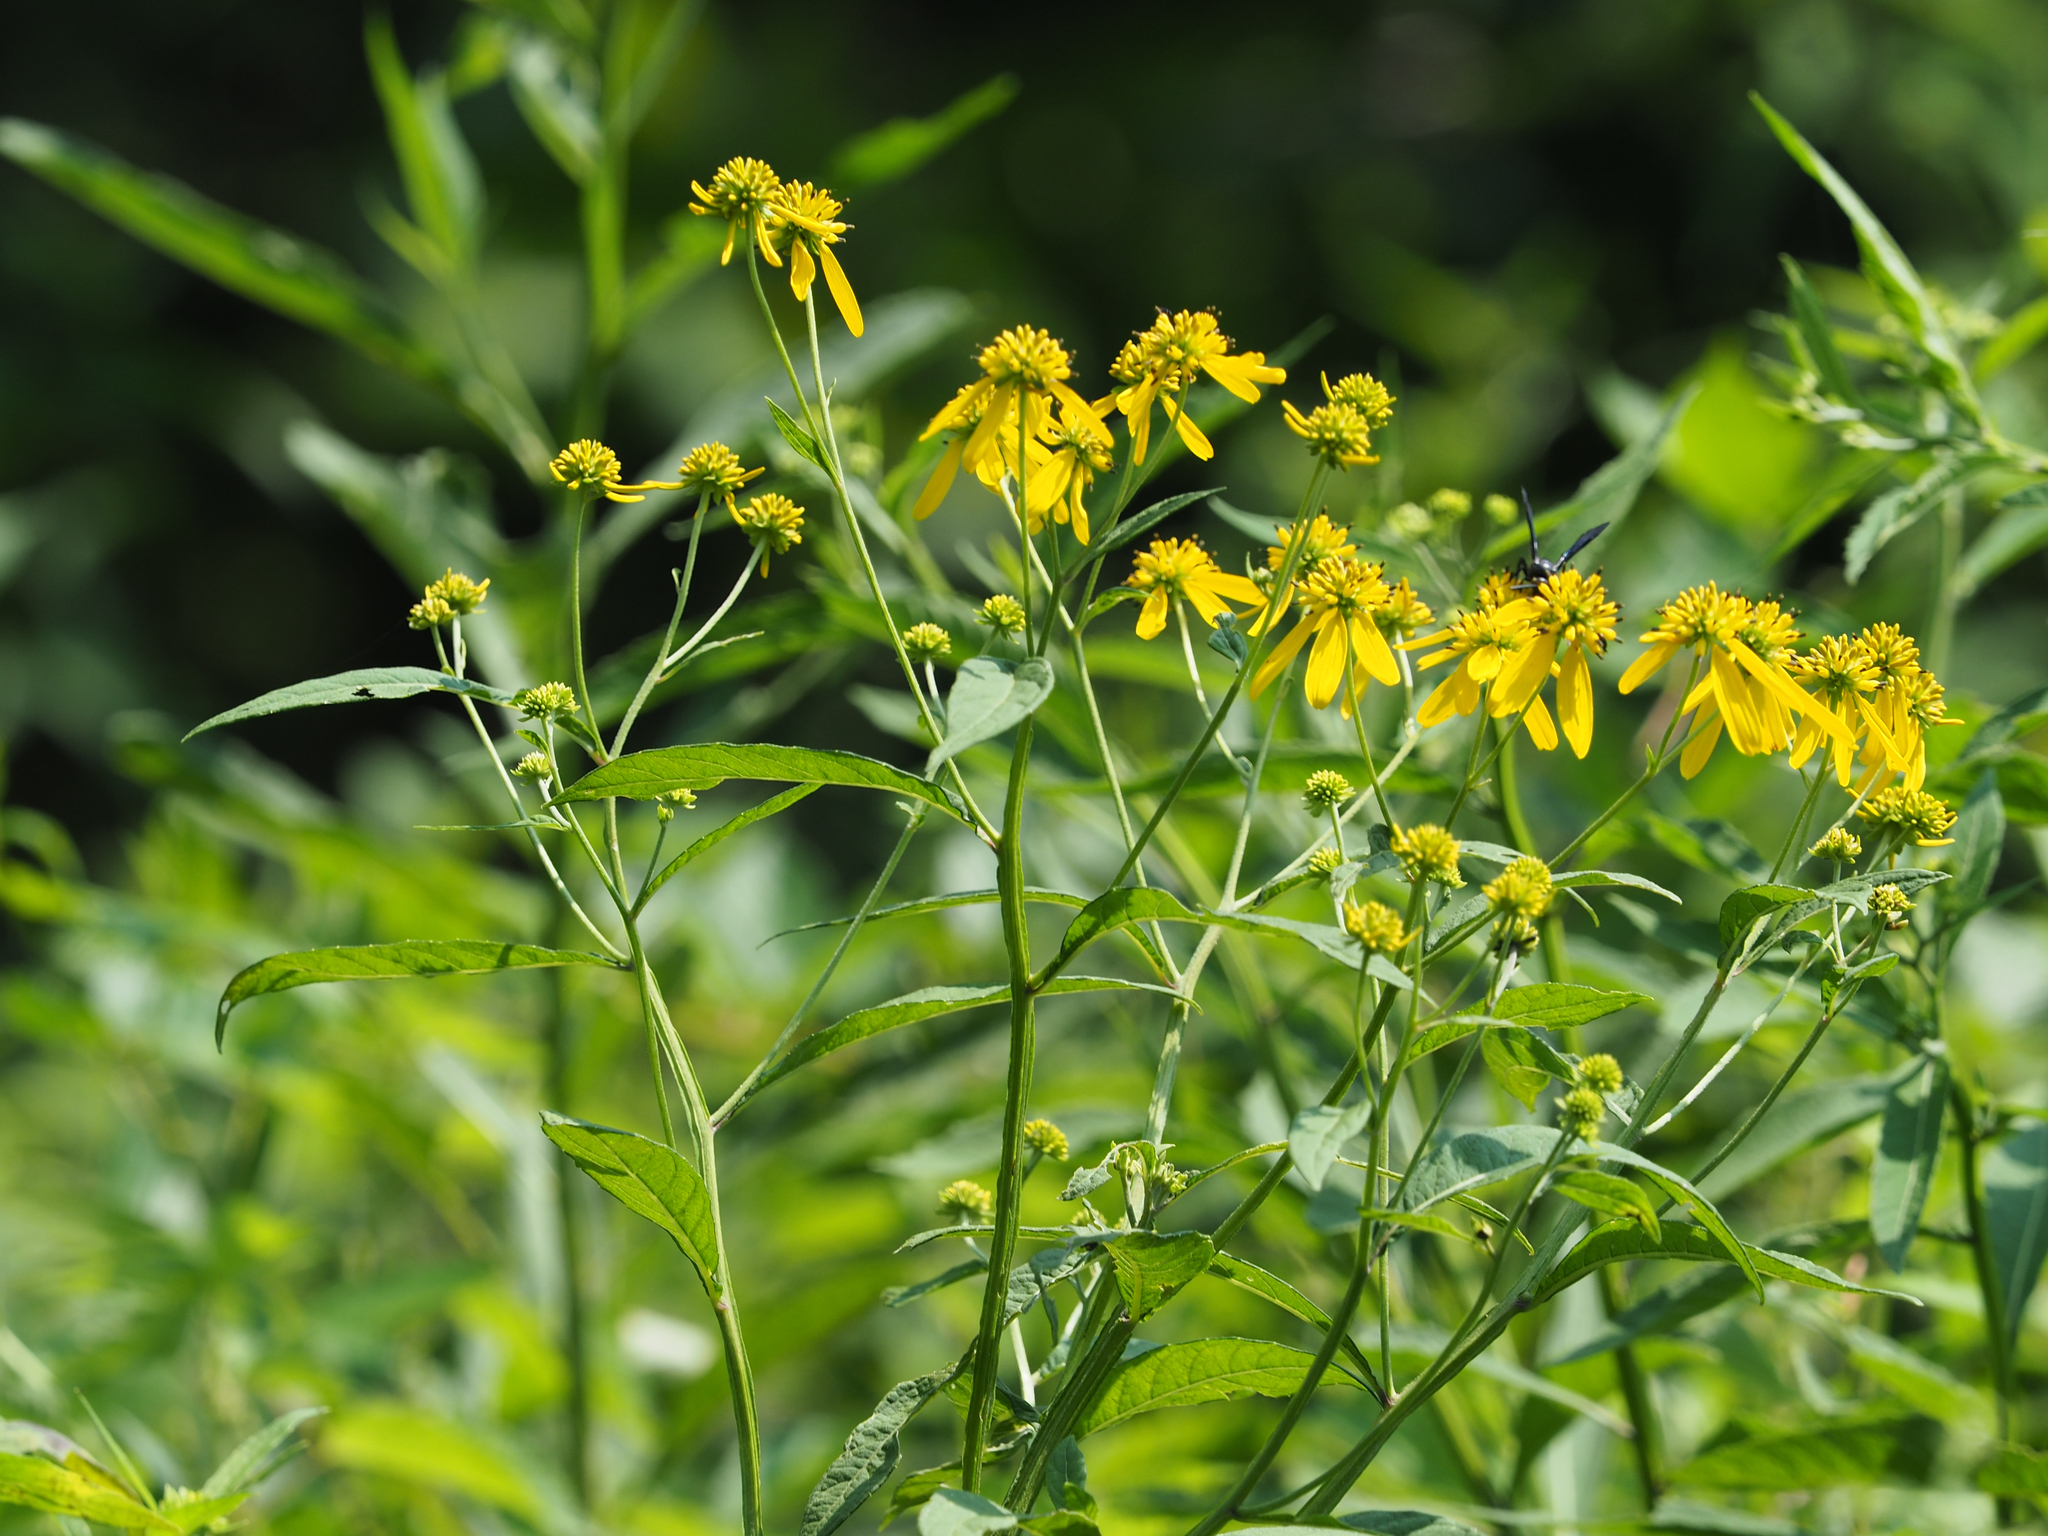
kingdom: Plantae
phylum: Tracheophyta
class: Magnoliopsida
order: Asterales
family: Asteraceae
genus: Verbesina
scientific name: Verbesina alternifolia
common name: Wingstem
